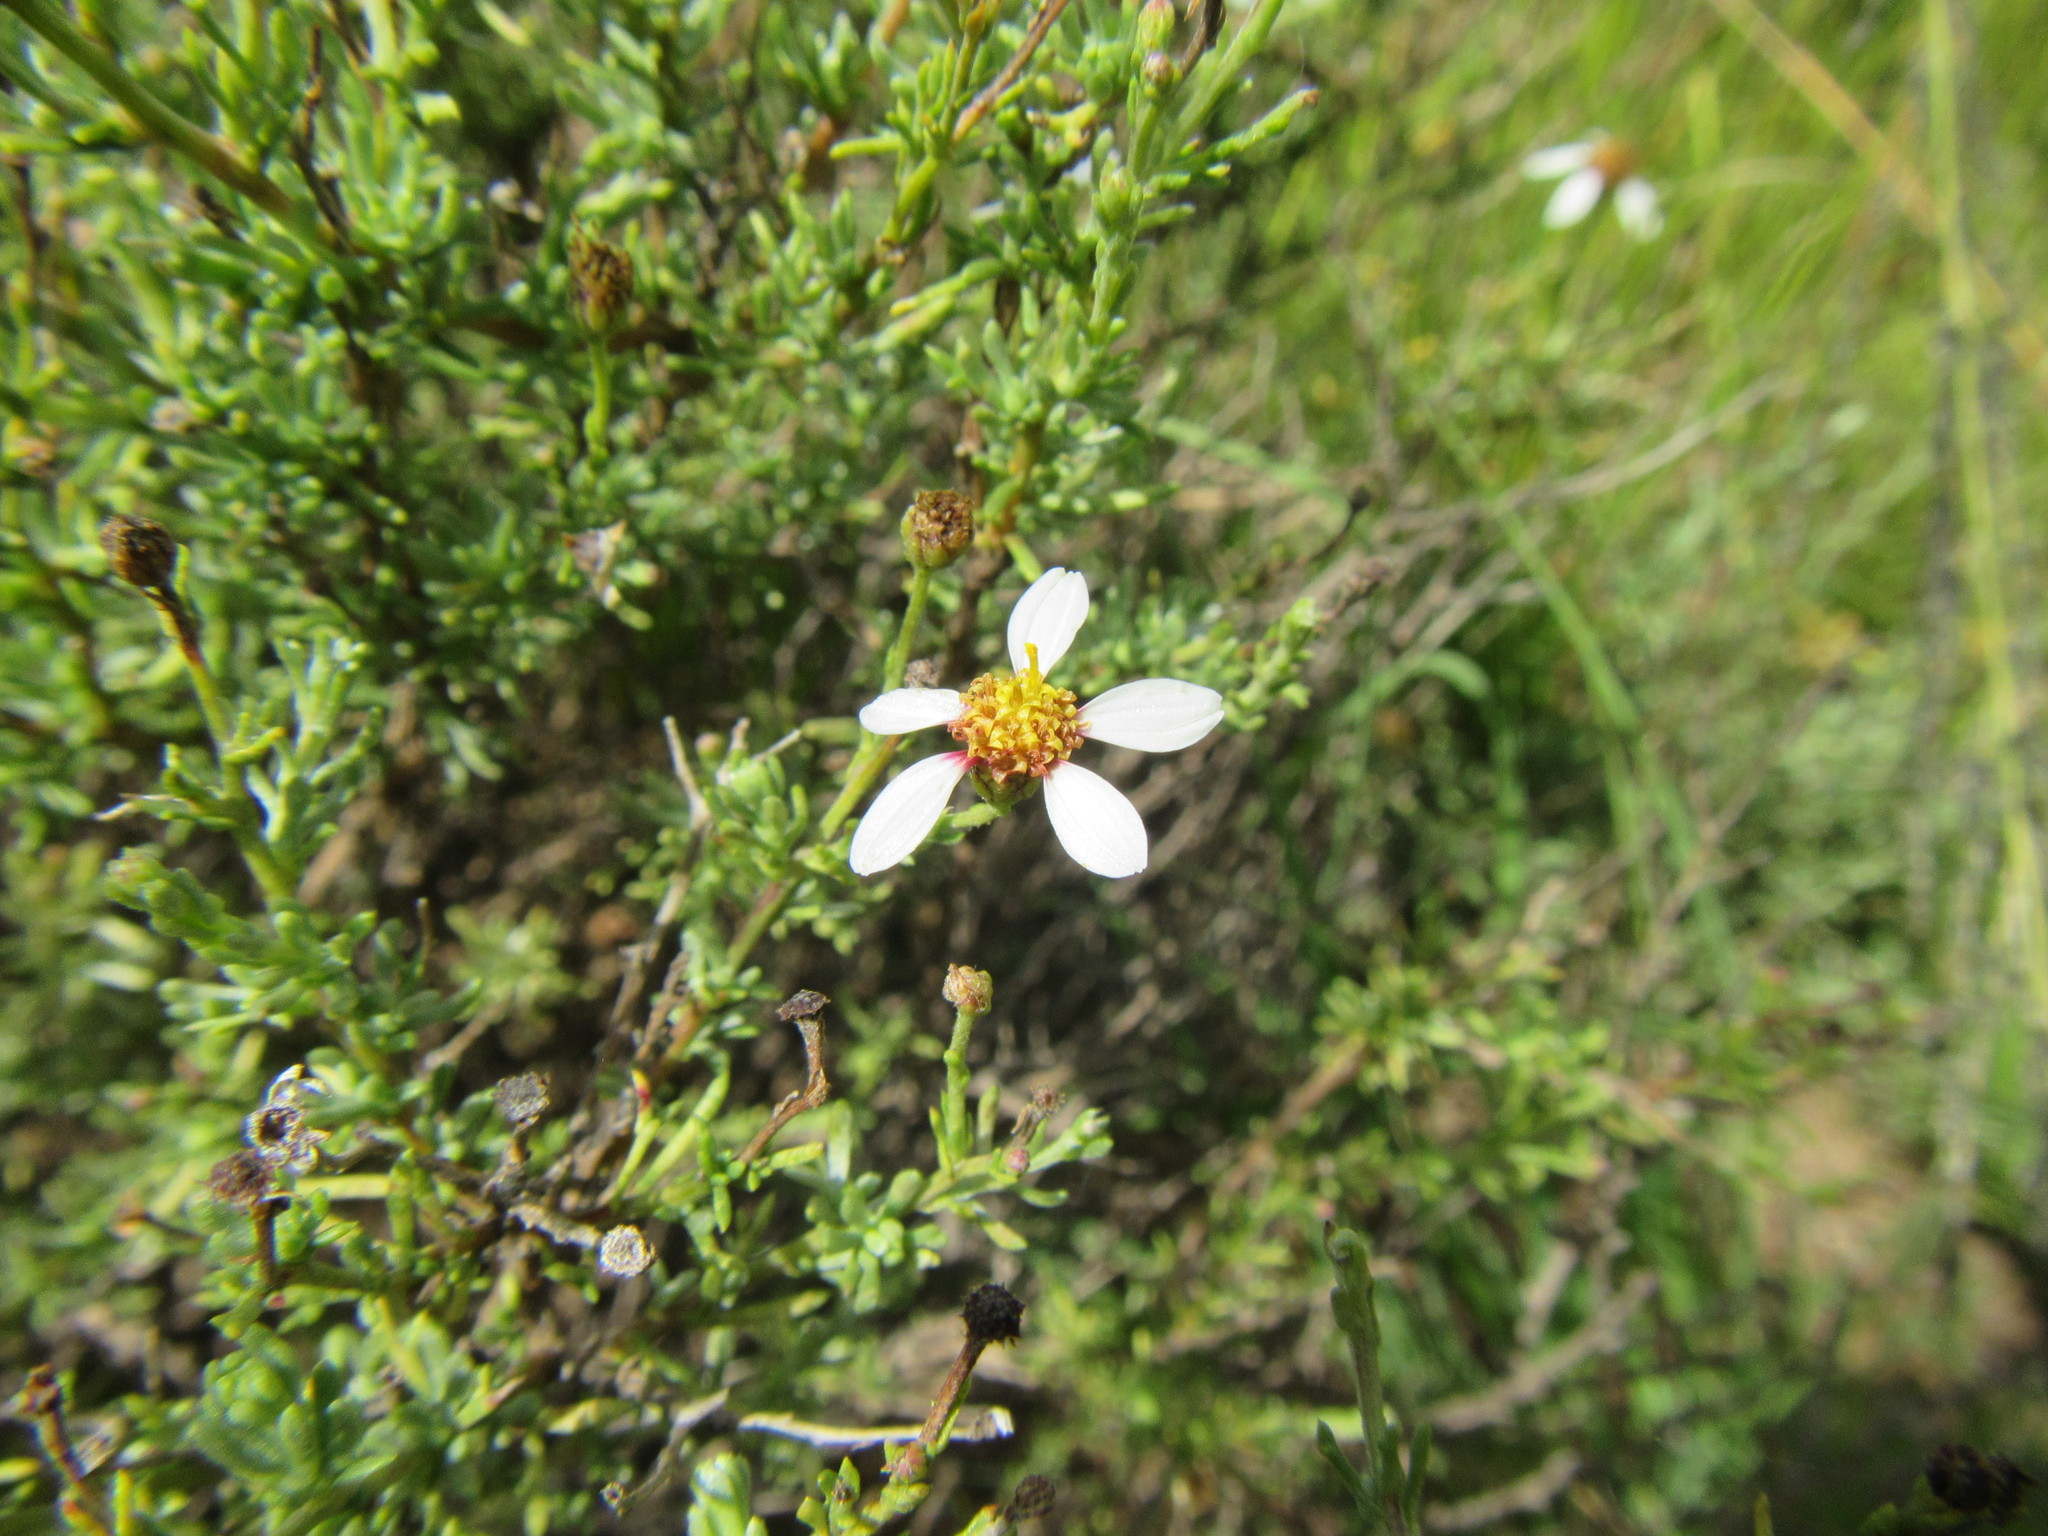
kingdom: Plantae
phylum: Tracheophyta
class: Magnoliopsida
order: Asterales
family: Asteraceae
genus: Phymaspermum
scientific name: Phymaspermum parvifolium
